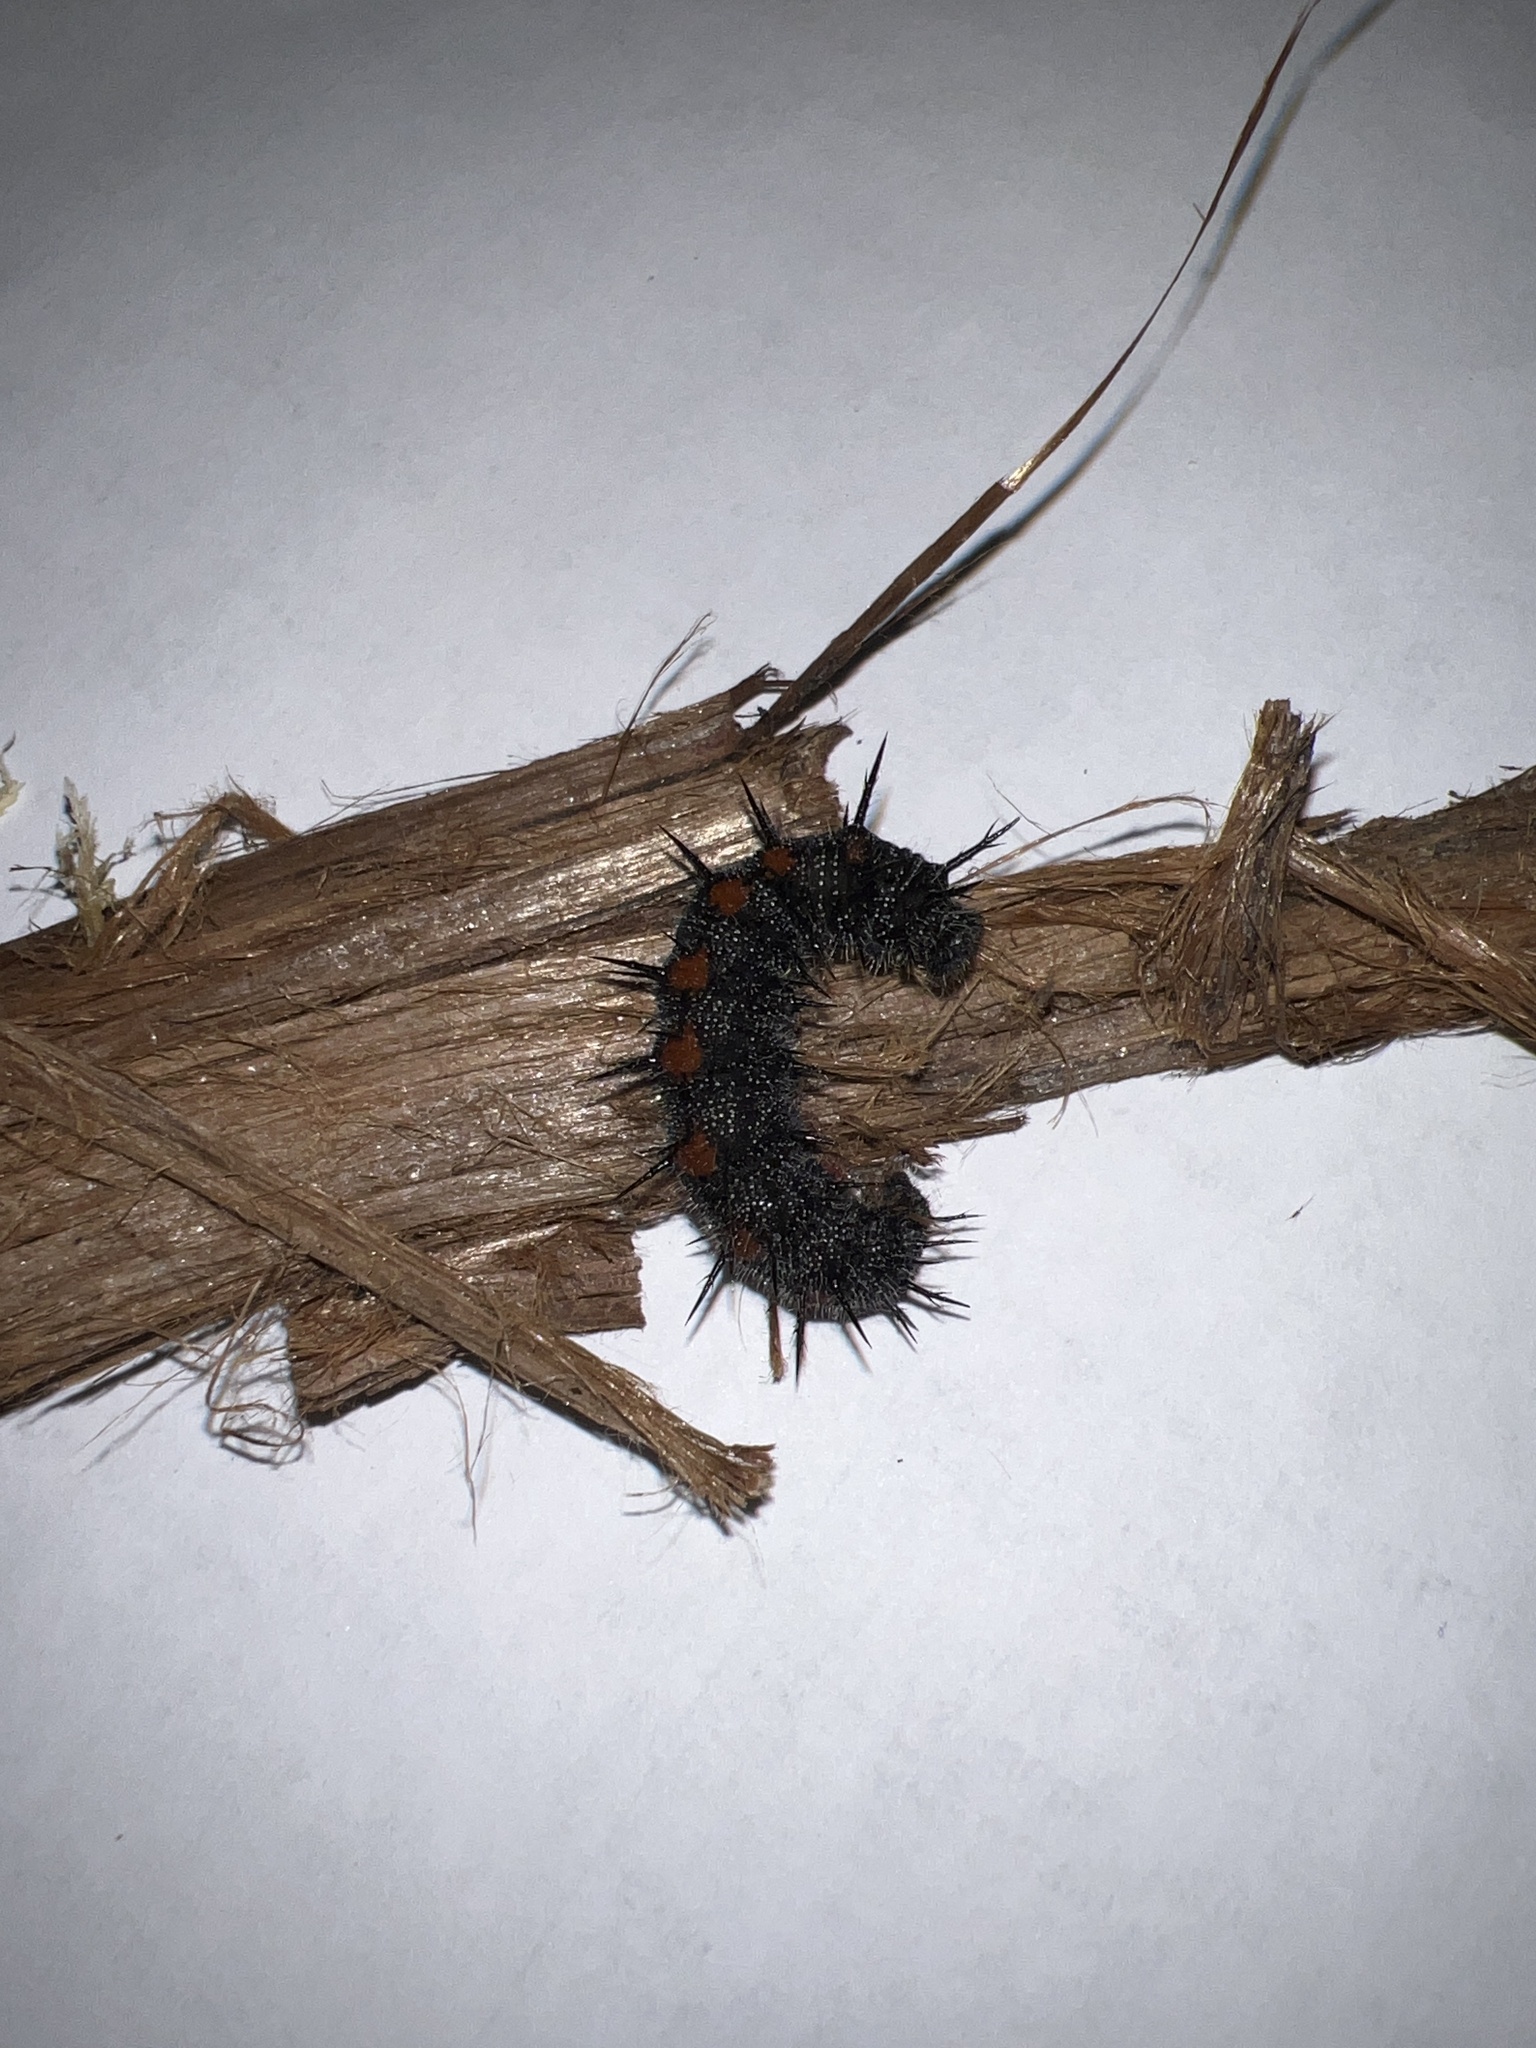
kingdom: Animalia
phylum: Arthropoda
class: Insecta
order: Lepidoptera
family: Nymphalidae
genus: Nymphalis
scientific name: Nymphalis antiopa
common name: Camberwell beauty
